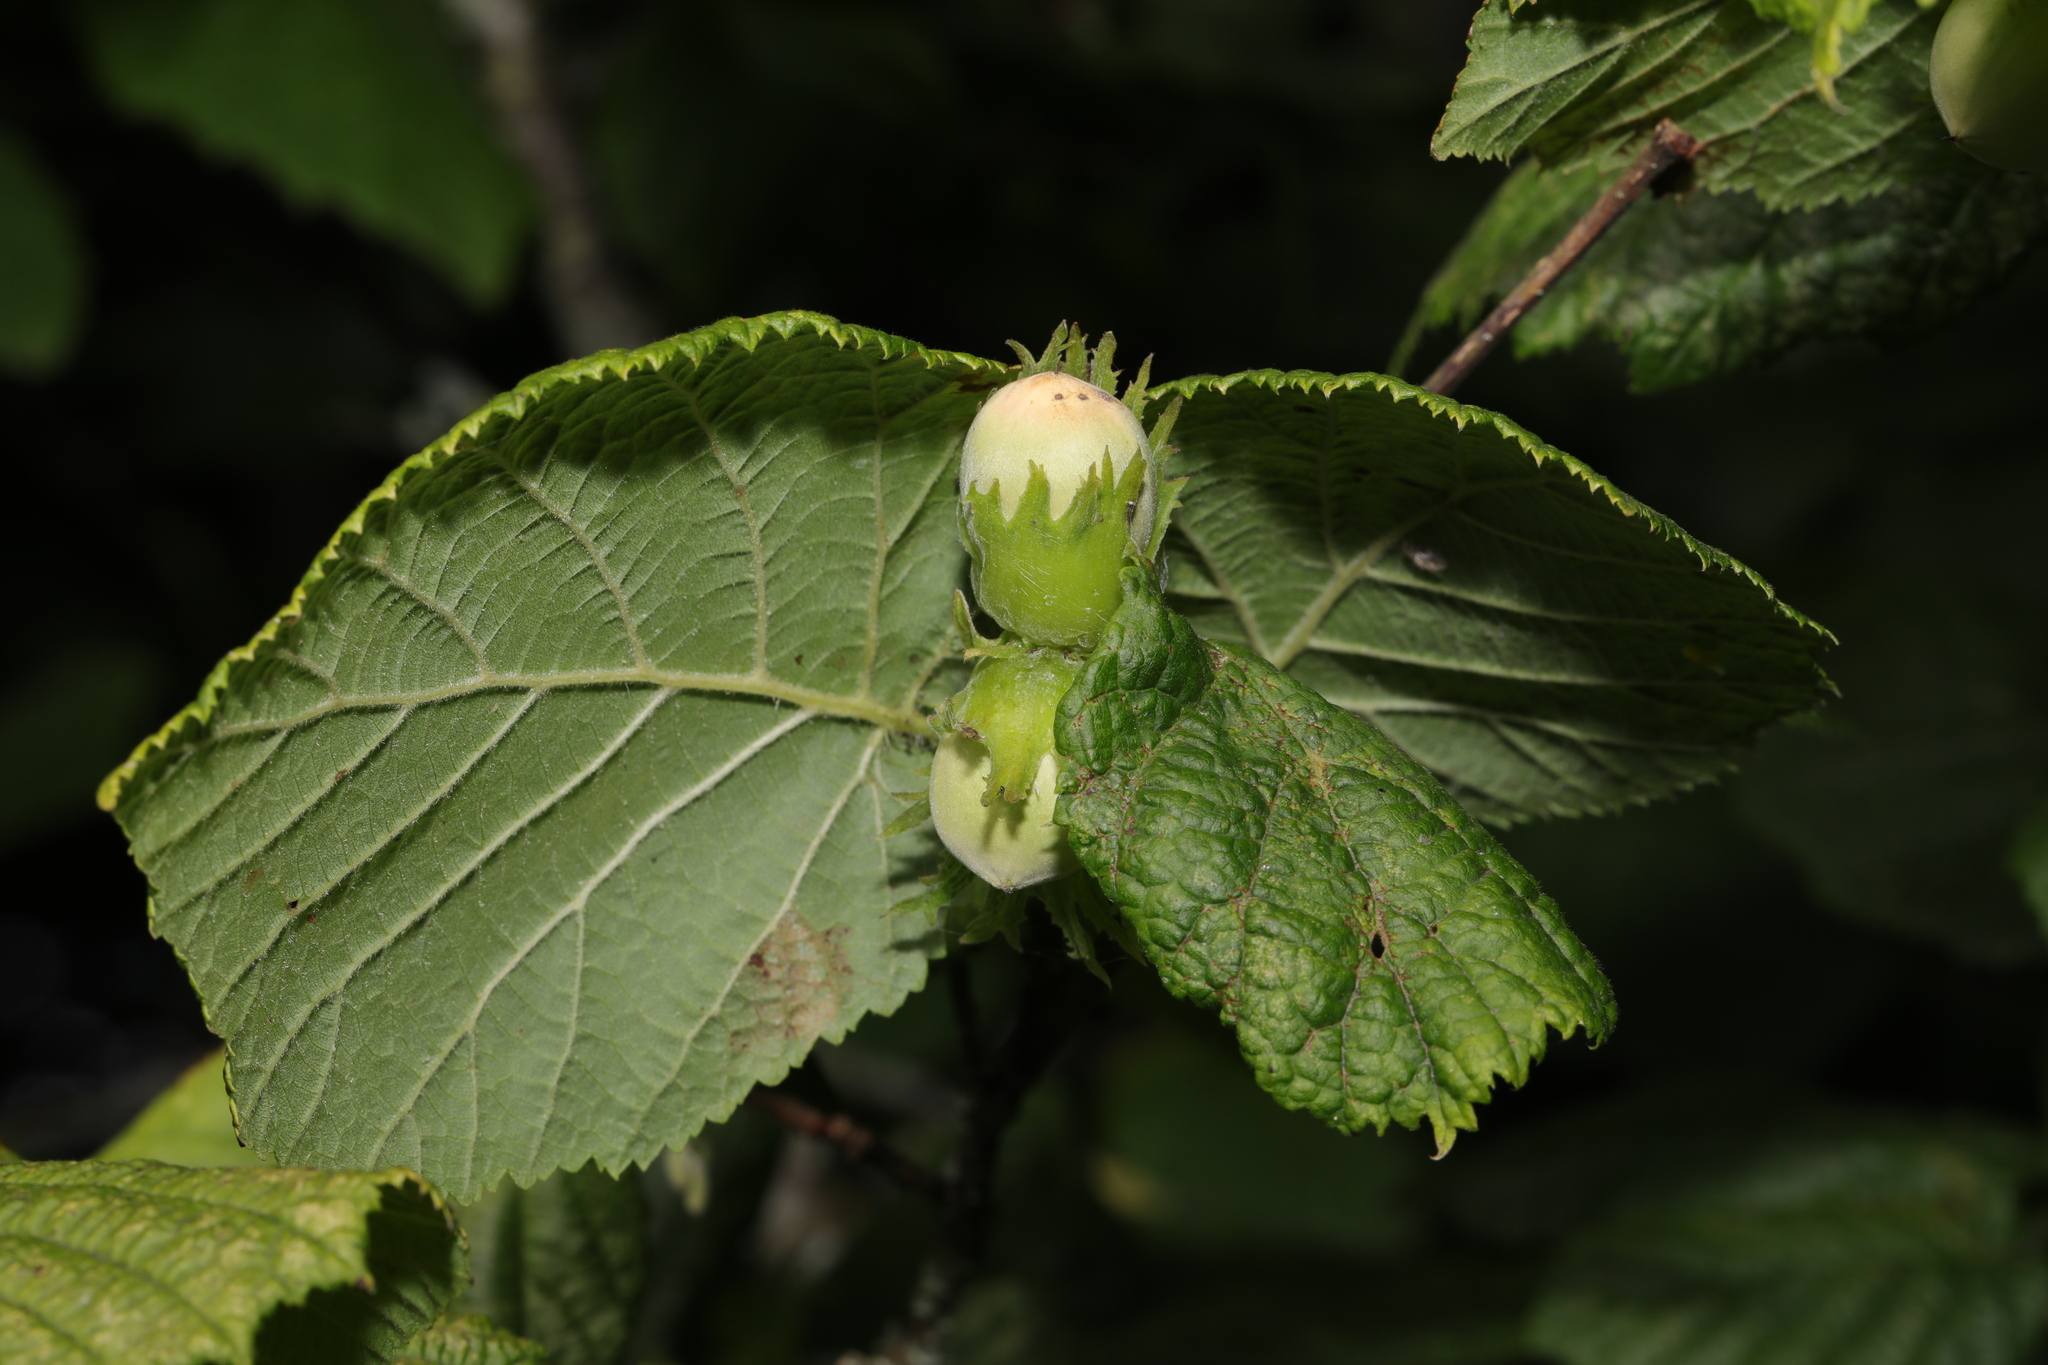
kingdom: Plantae
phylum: Tracheophyta
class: Magnoliopsida
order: Fagales
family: Betulaceae
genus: Corylus
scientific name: Corylus avellana
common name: European hazel
